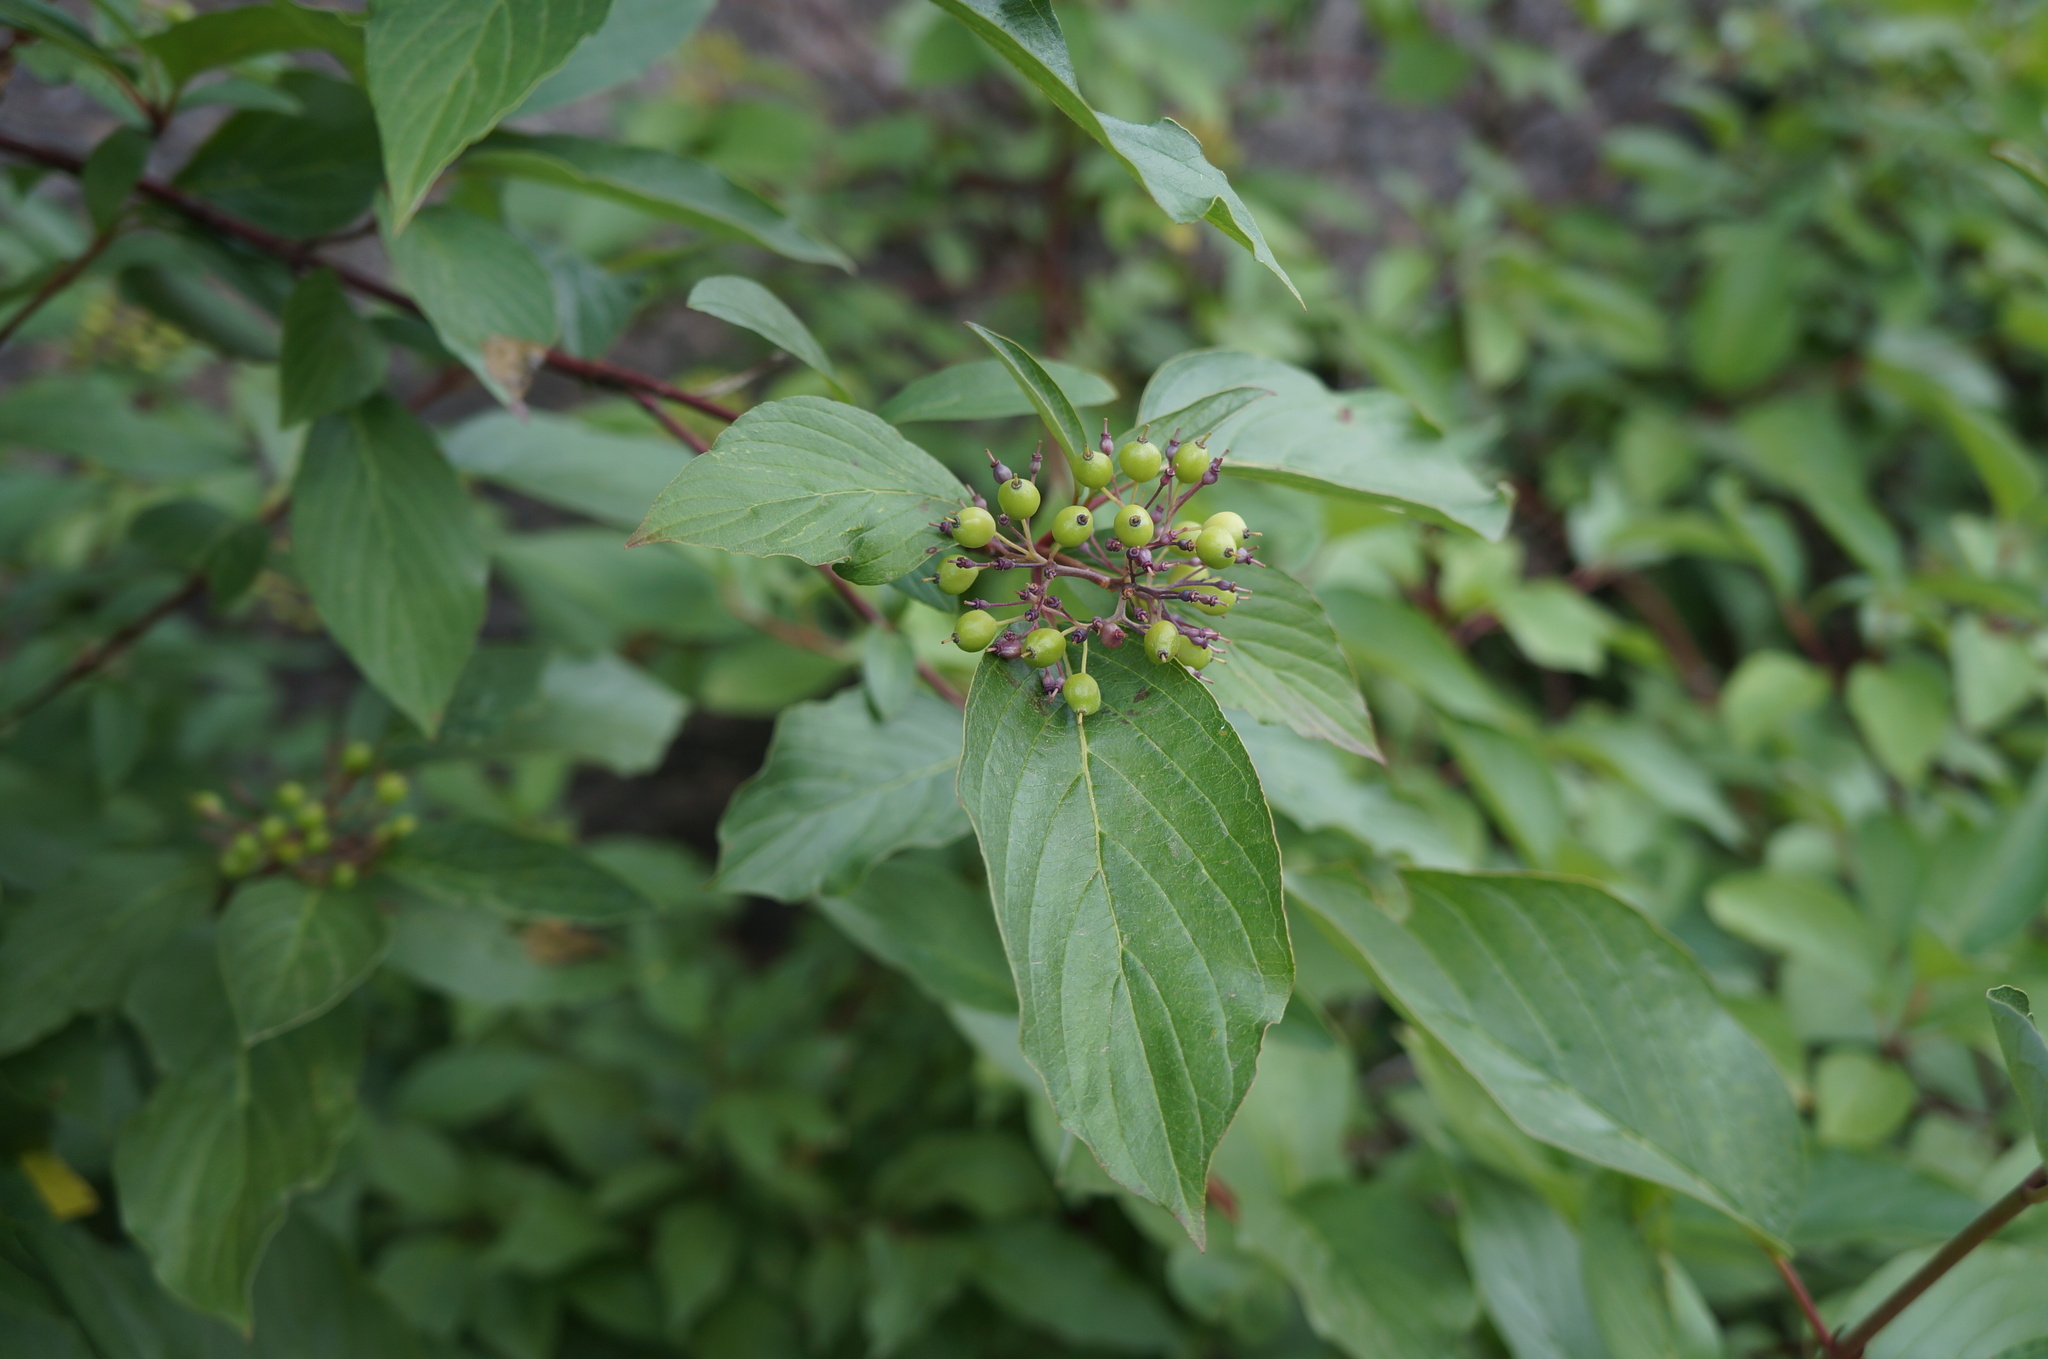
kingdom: Plantae
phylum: Tracheophyta
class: Magnoliopsida
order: Cornales
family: Cornaceae
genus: Cornus
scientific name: Cornus sericea
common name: Red-osier dogwood
